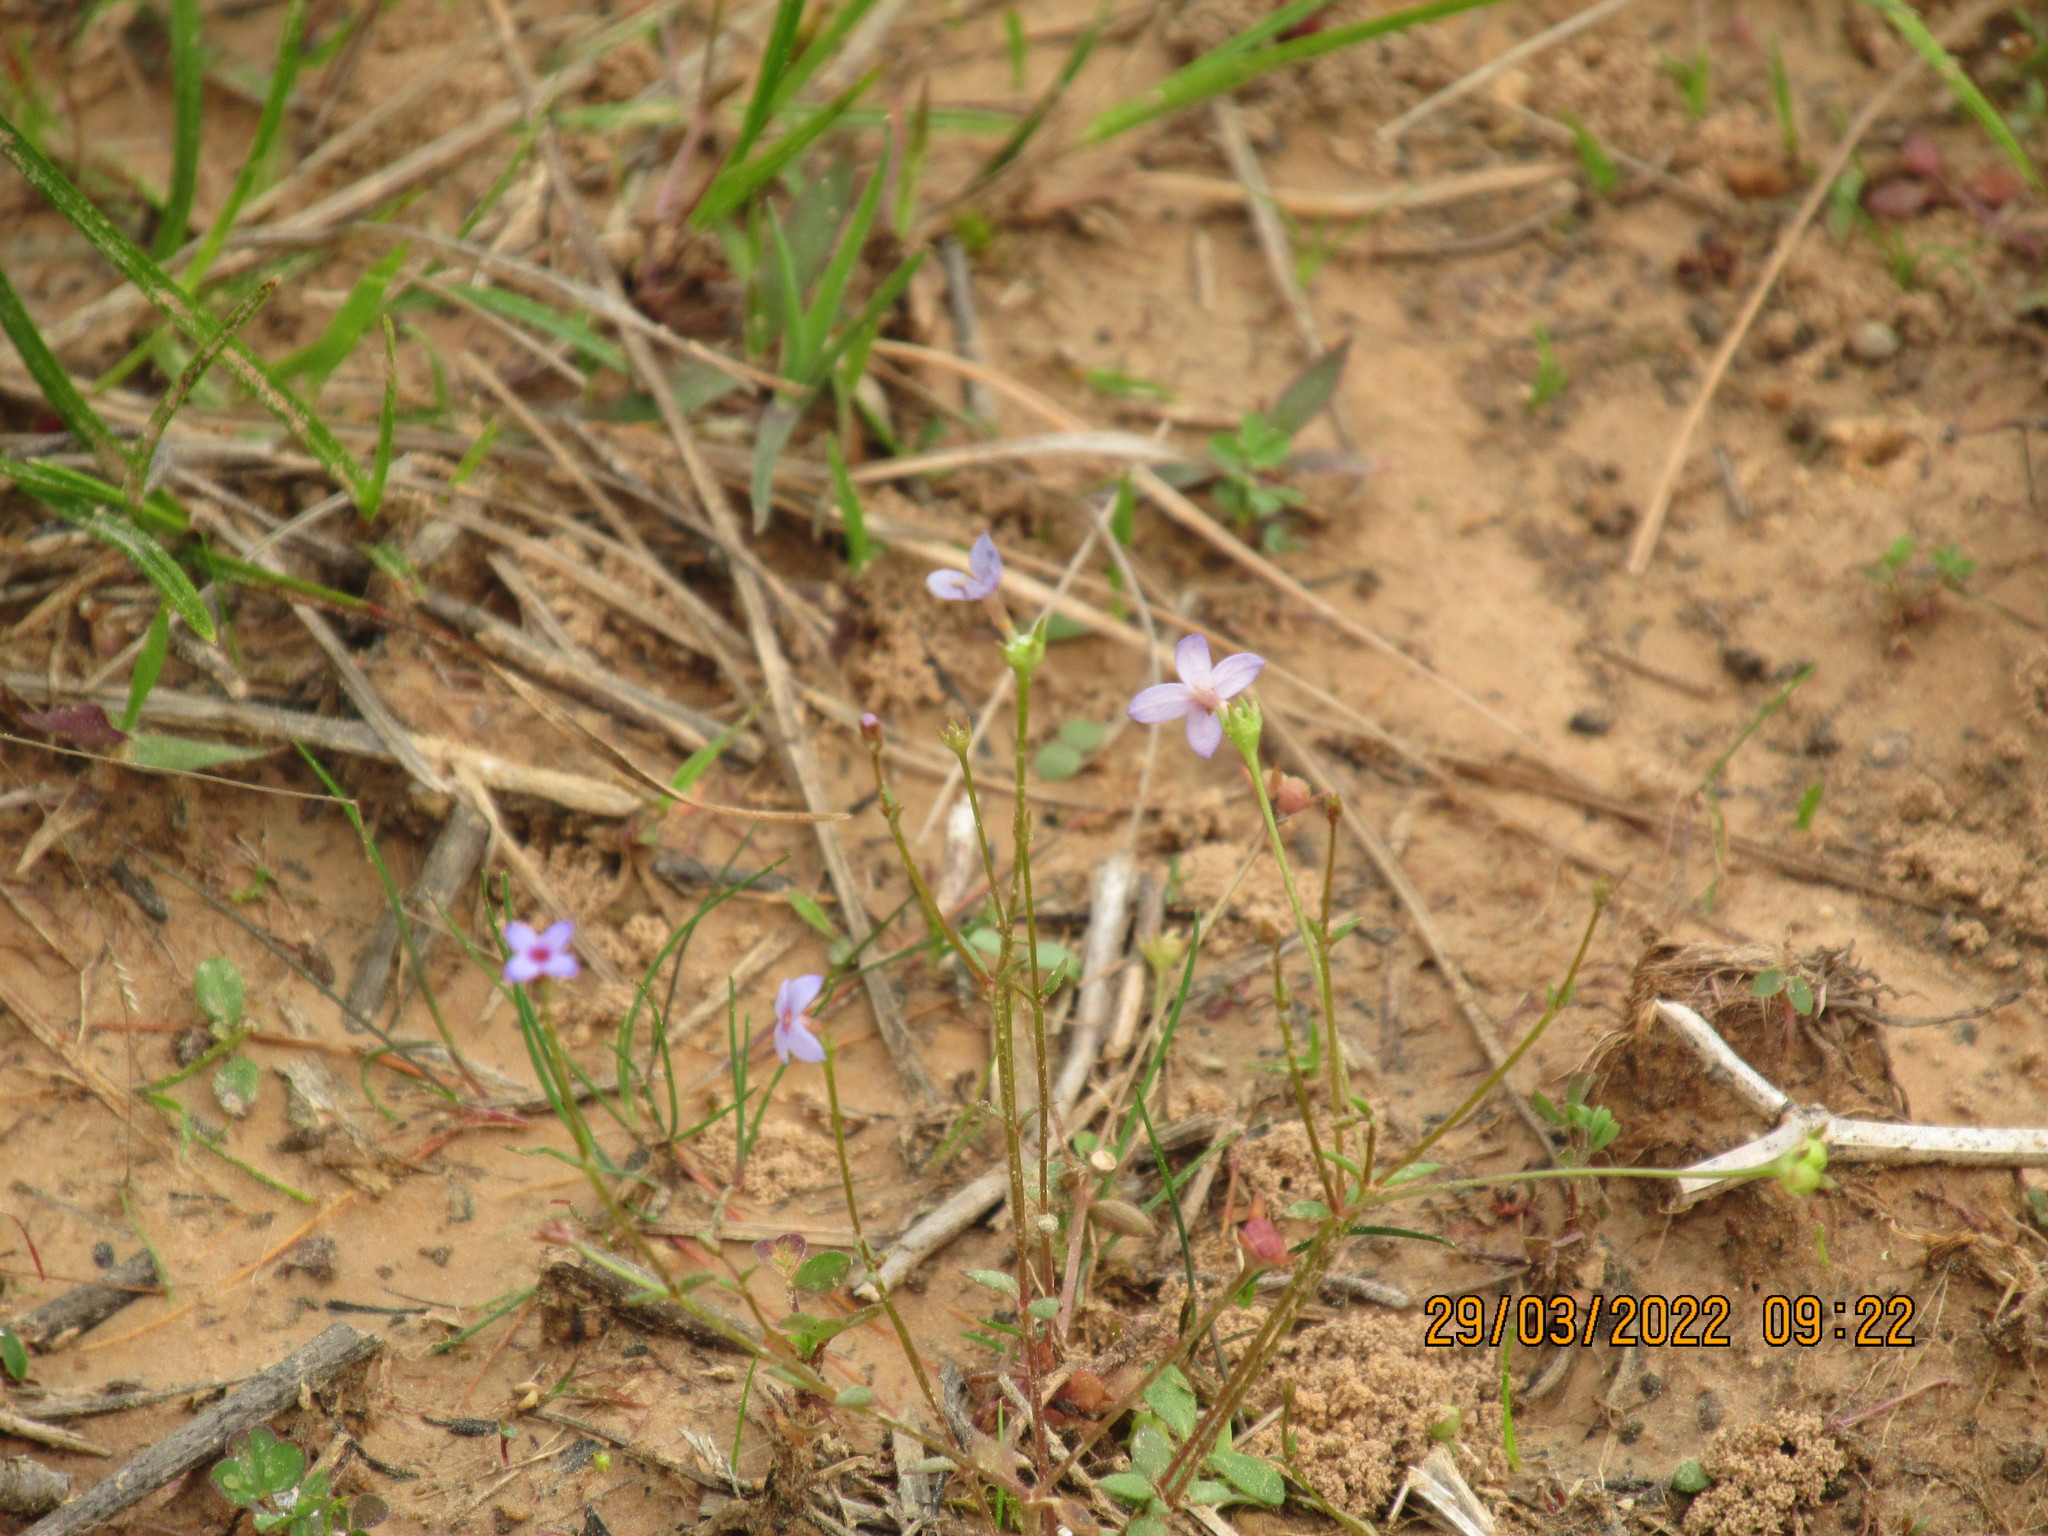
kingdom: Plantae
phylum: Tracheophyta
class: Magnoliopsida
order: Gentianales
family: Rubiaceae
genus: Houstonia
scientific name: Houstonia pusilla
